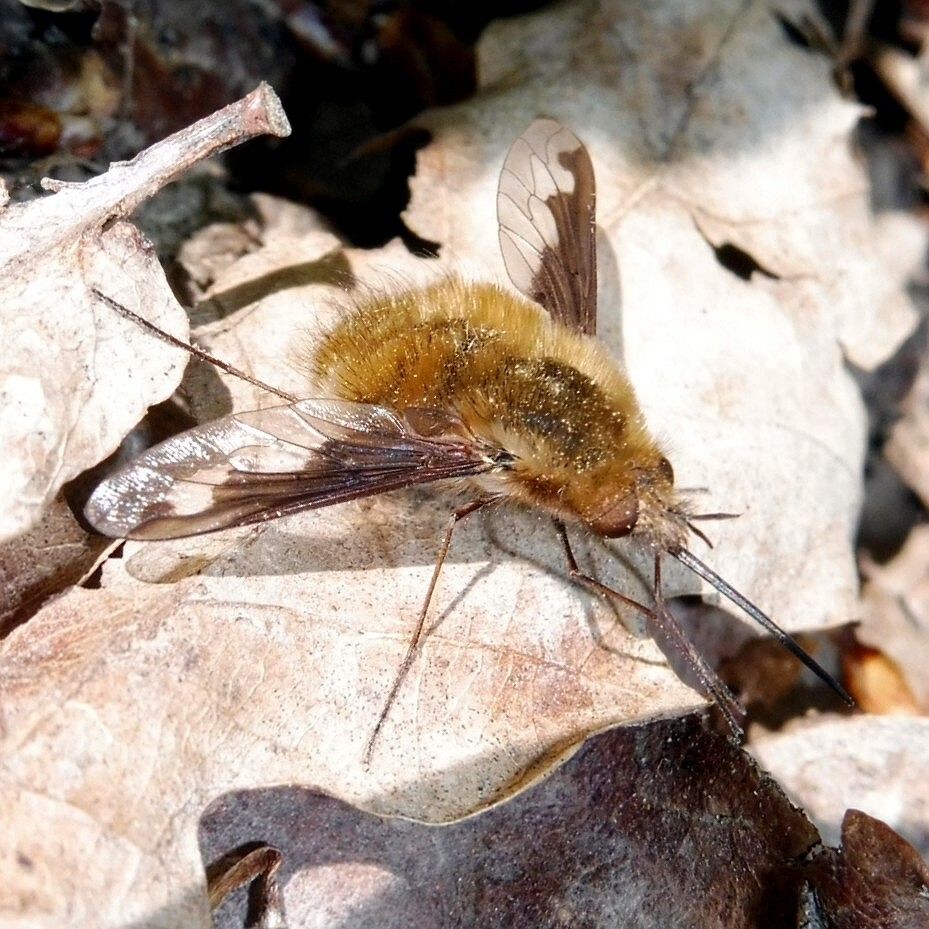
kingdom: Animalia
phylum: Arthropoda
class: Insecta
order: Diptera
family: Bombyliidae
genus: Bombylius
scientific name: Bombylius major
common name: Bee fly
